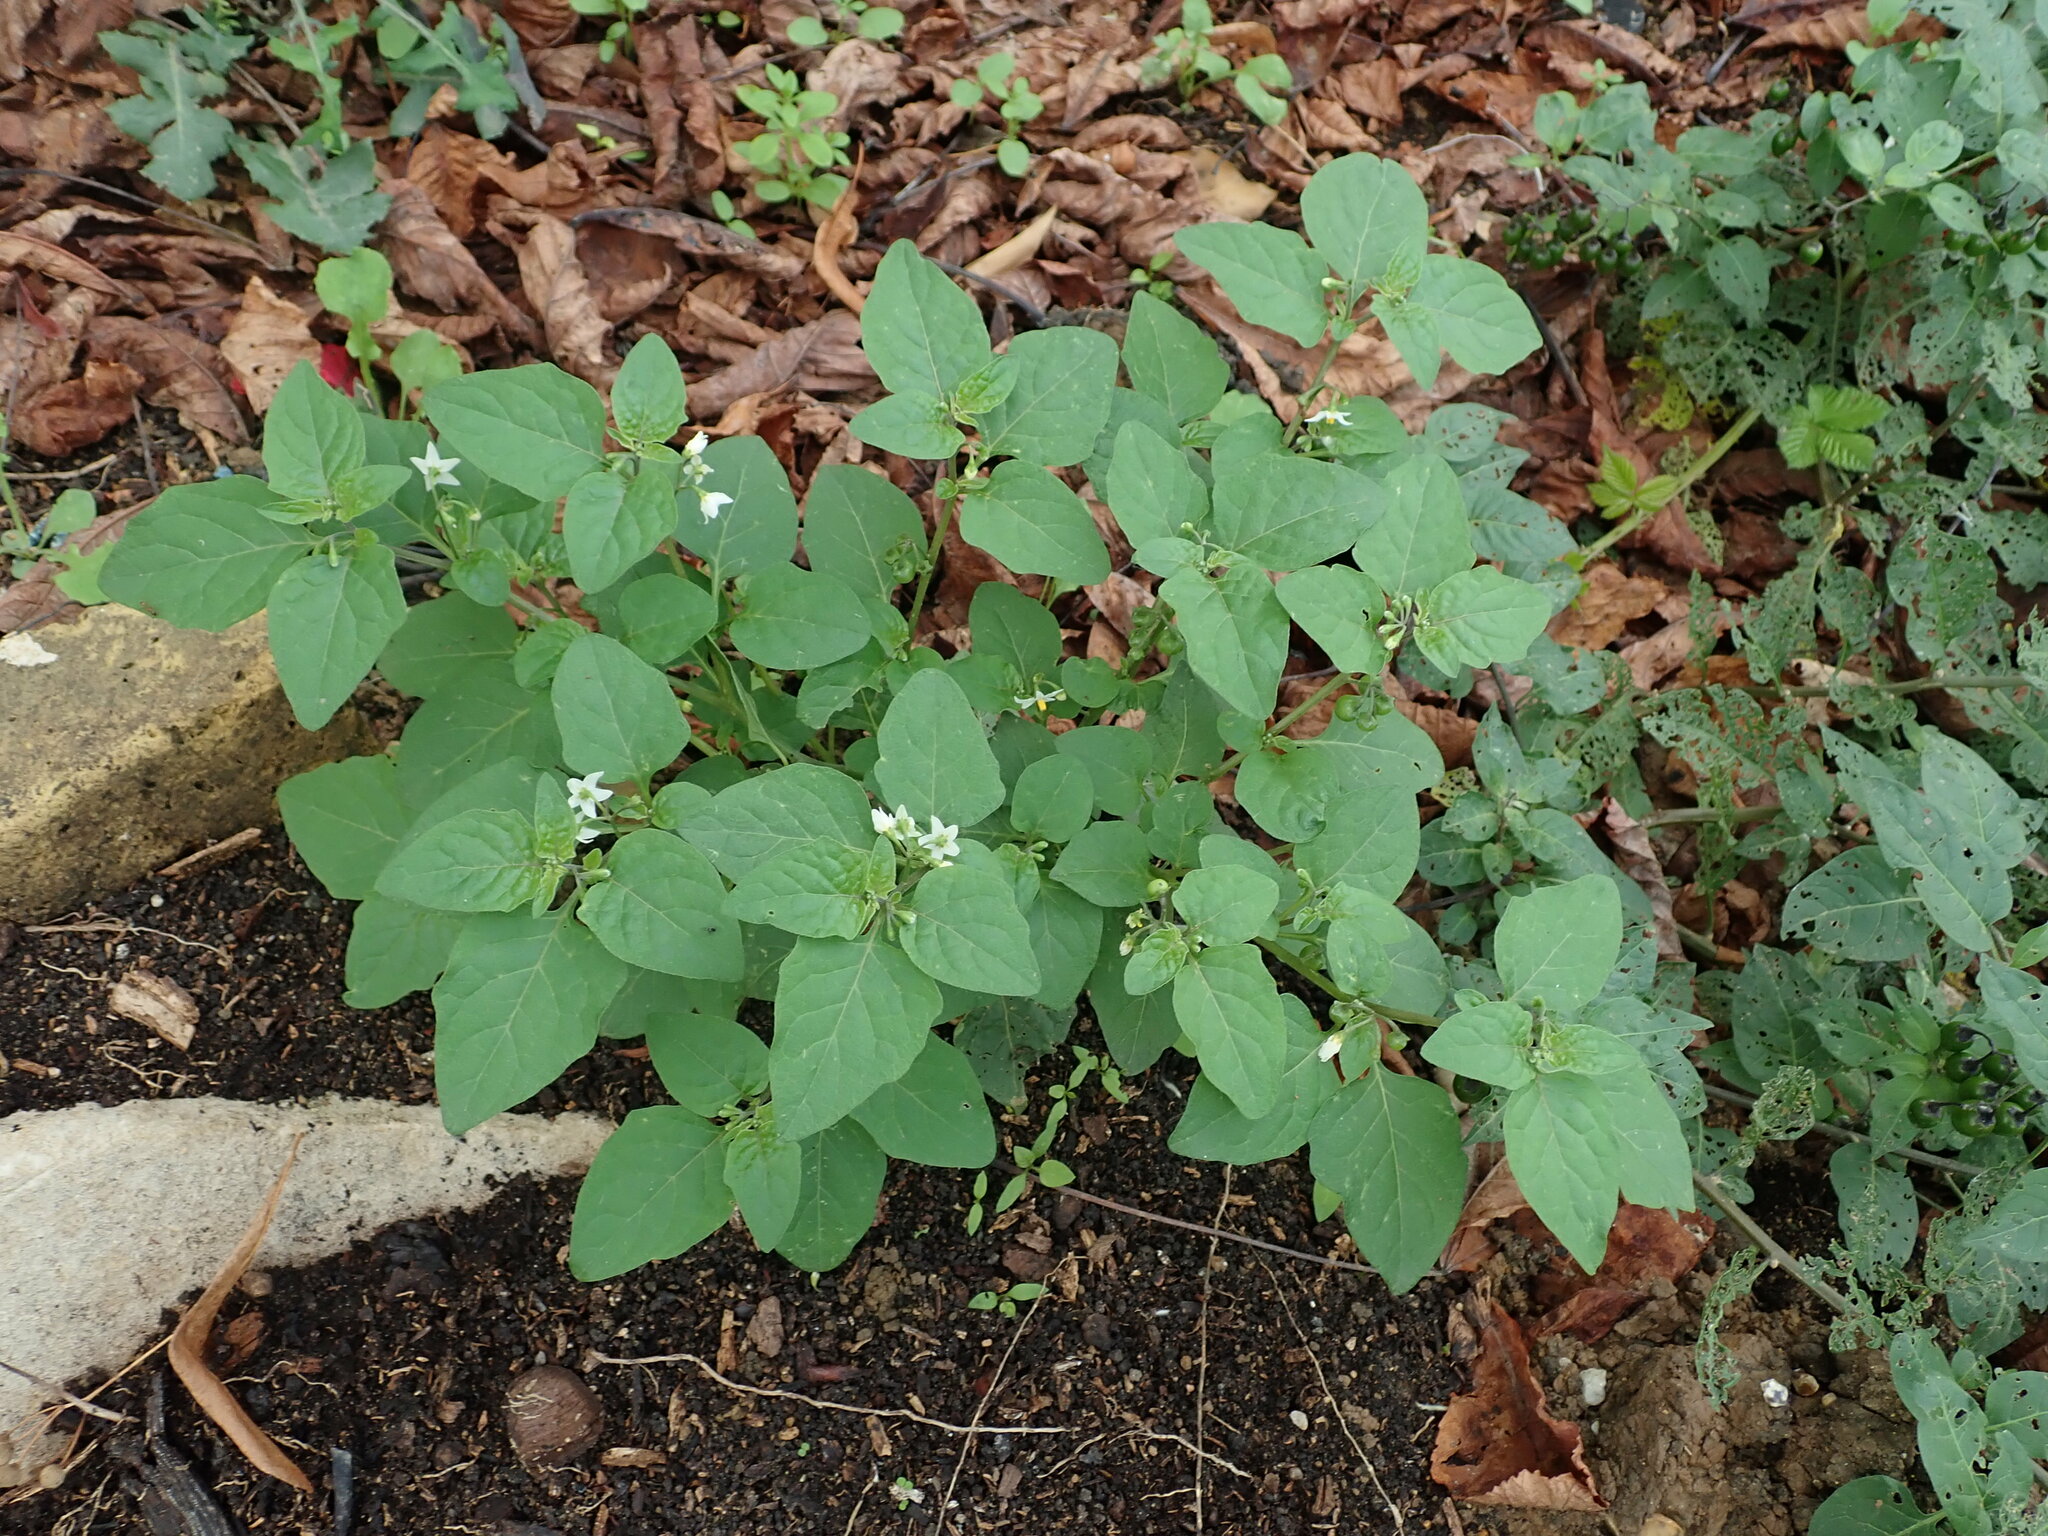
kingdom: Plantae
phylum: Tracheophyta
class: Magnoliopsida
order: Solanales
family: Solanaceae
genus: Solanum
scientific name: Solanum nigrum
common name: Black nightshade
